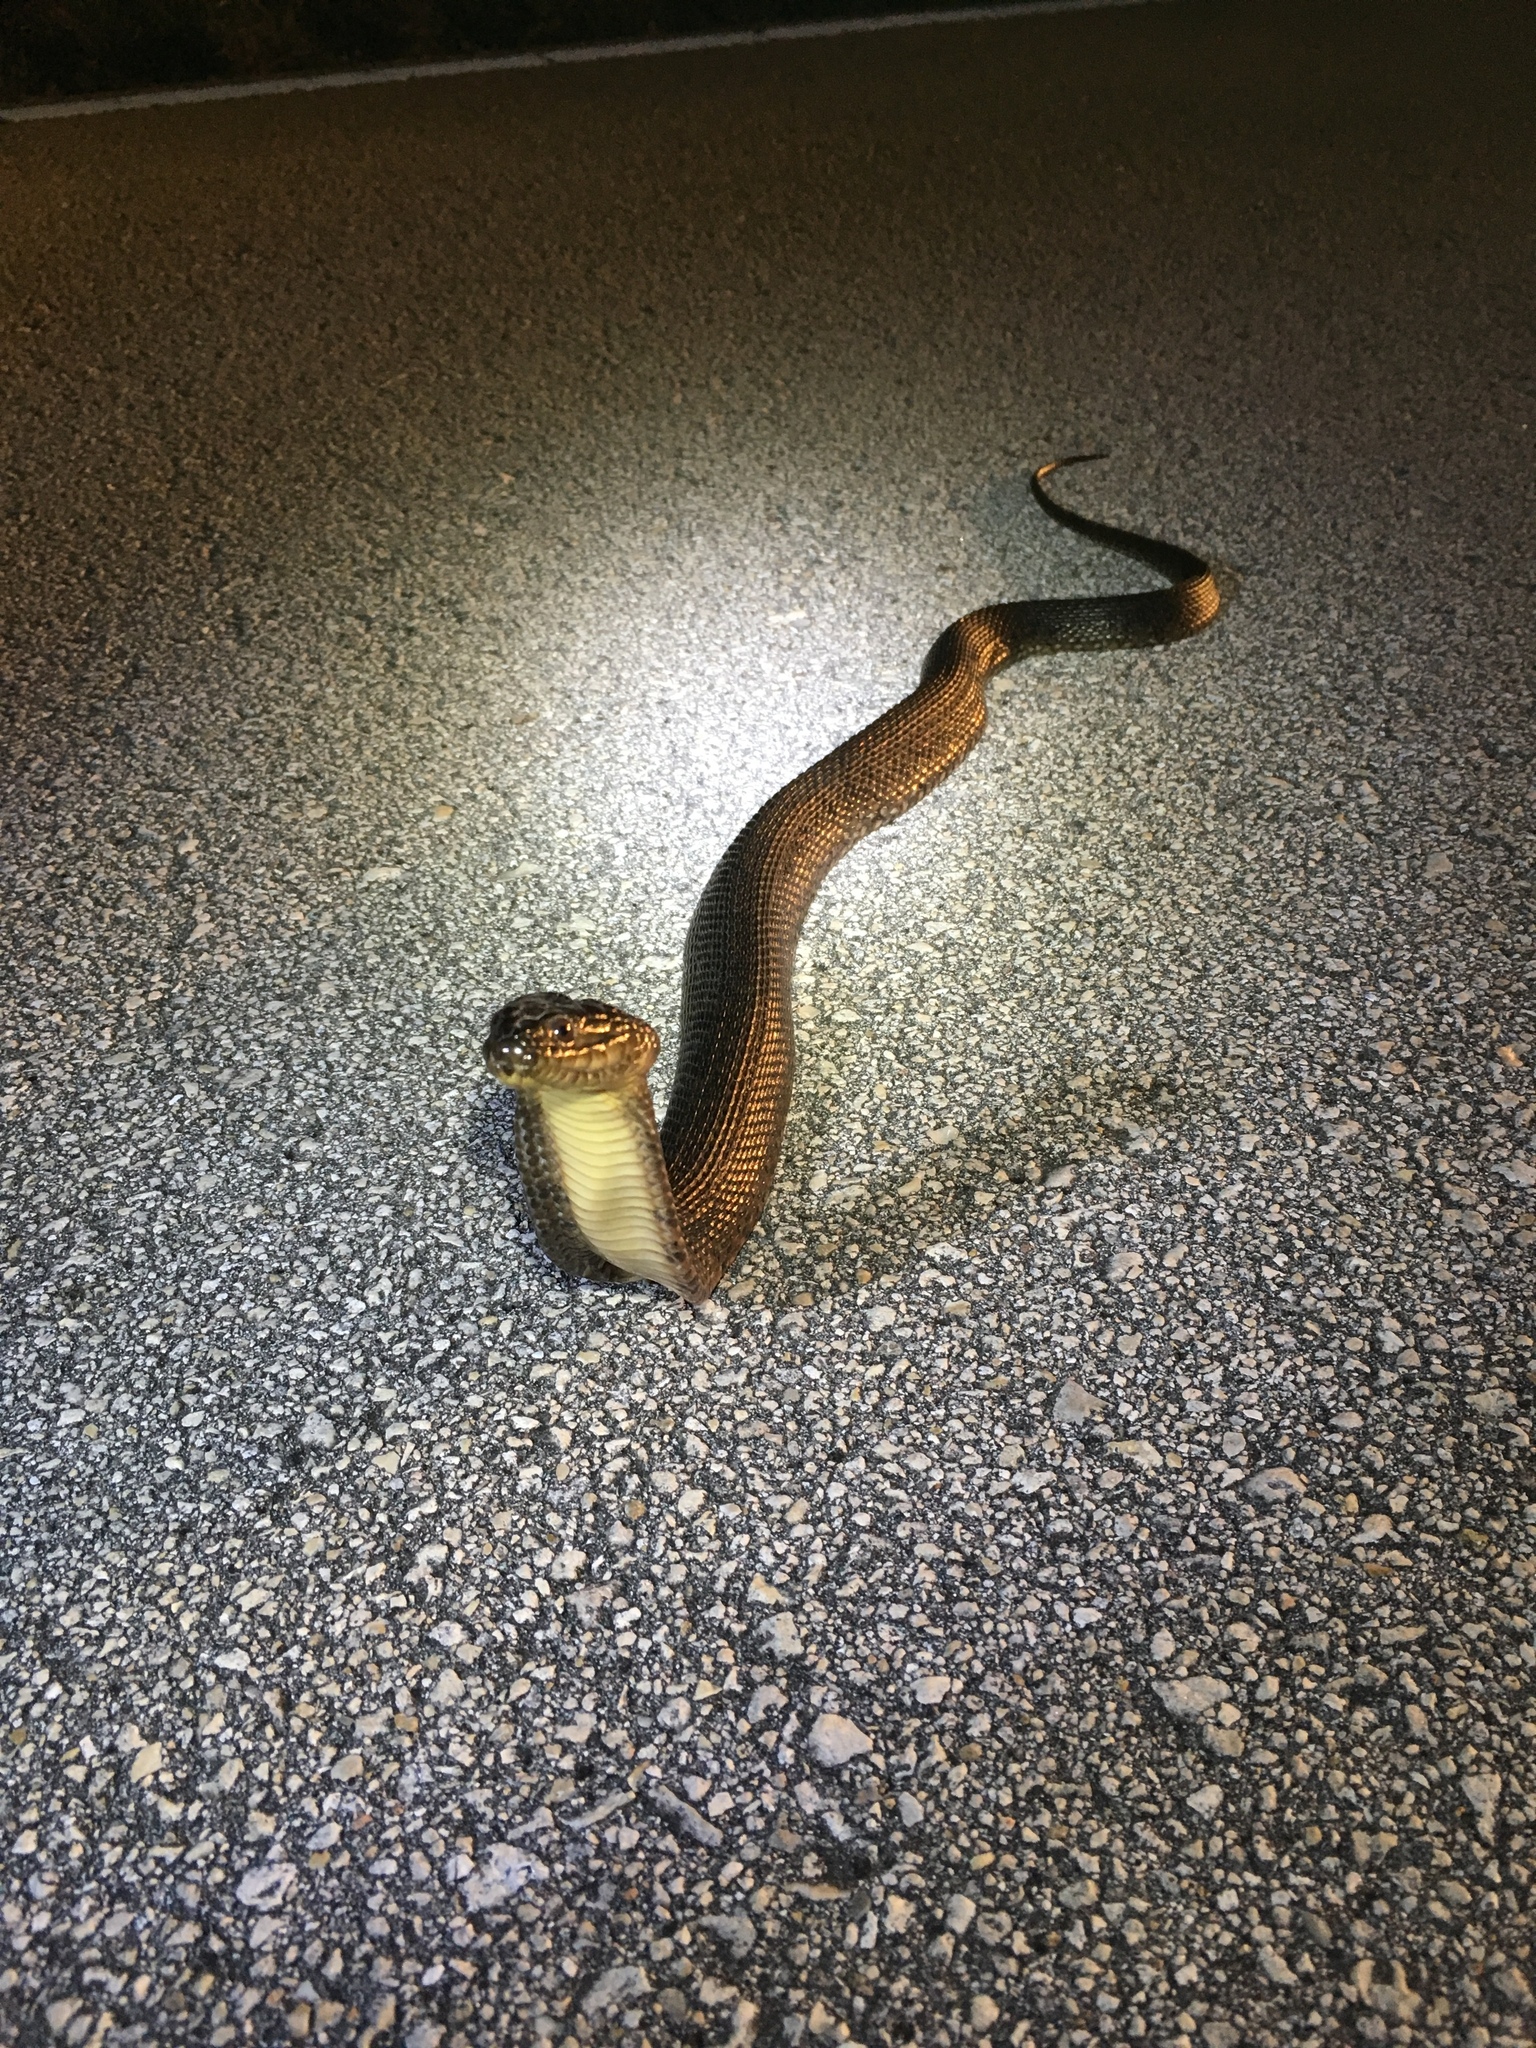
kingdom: Animalia
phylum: Chordata
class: Squamata
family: Colubridae
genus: Nerodia
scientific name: Nerodia floridana
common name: Florida green watersnake
